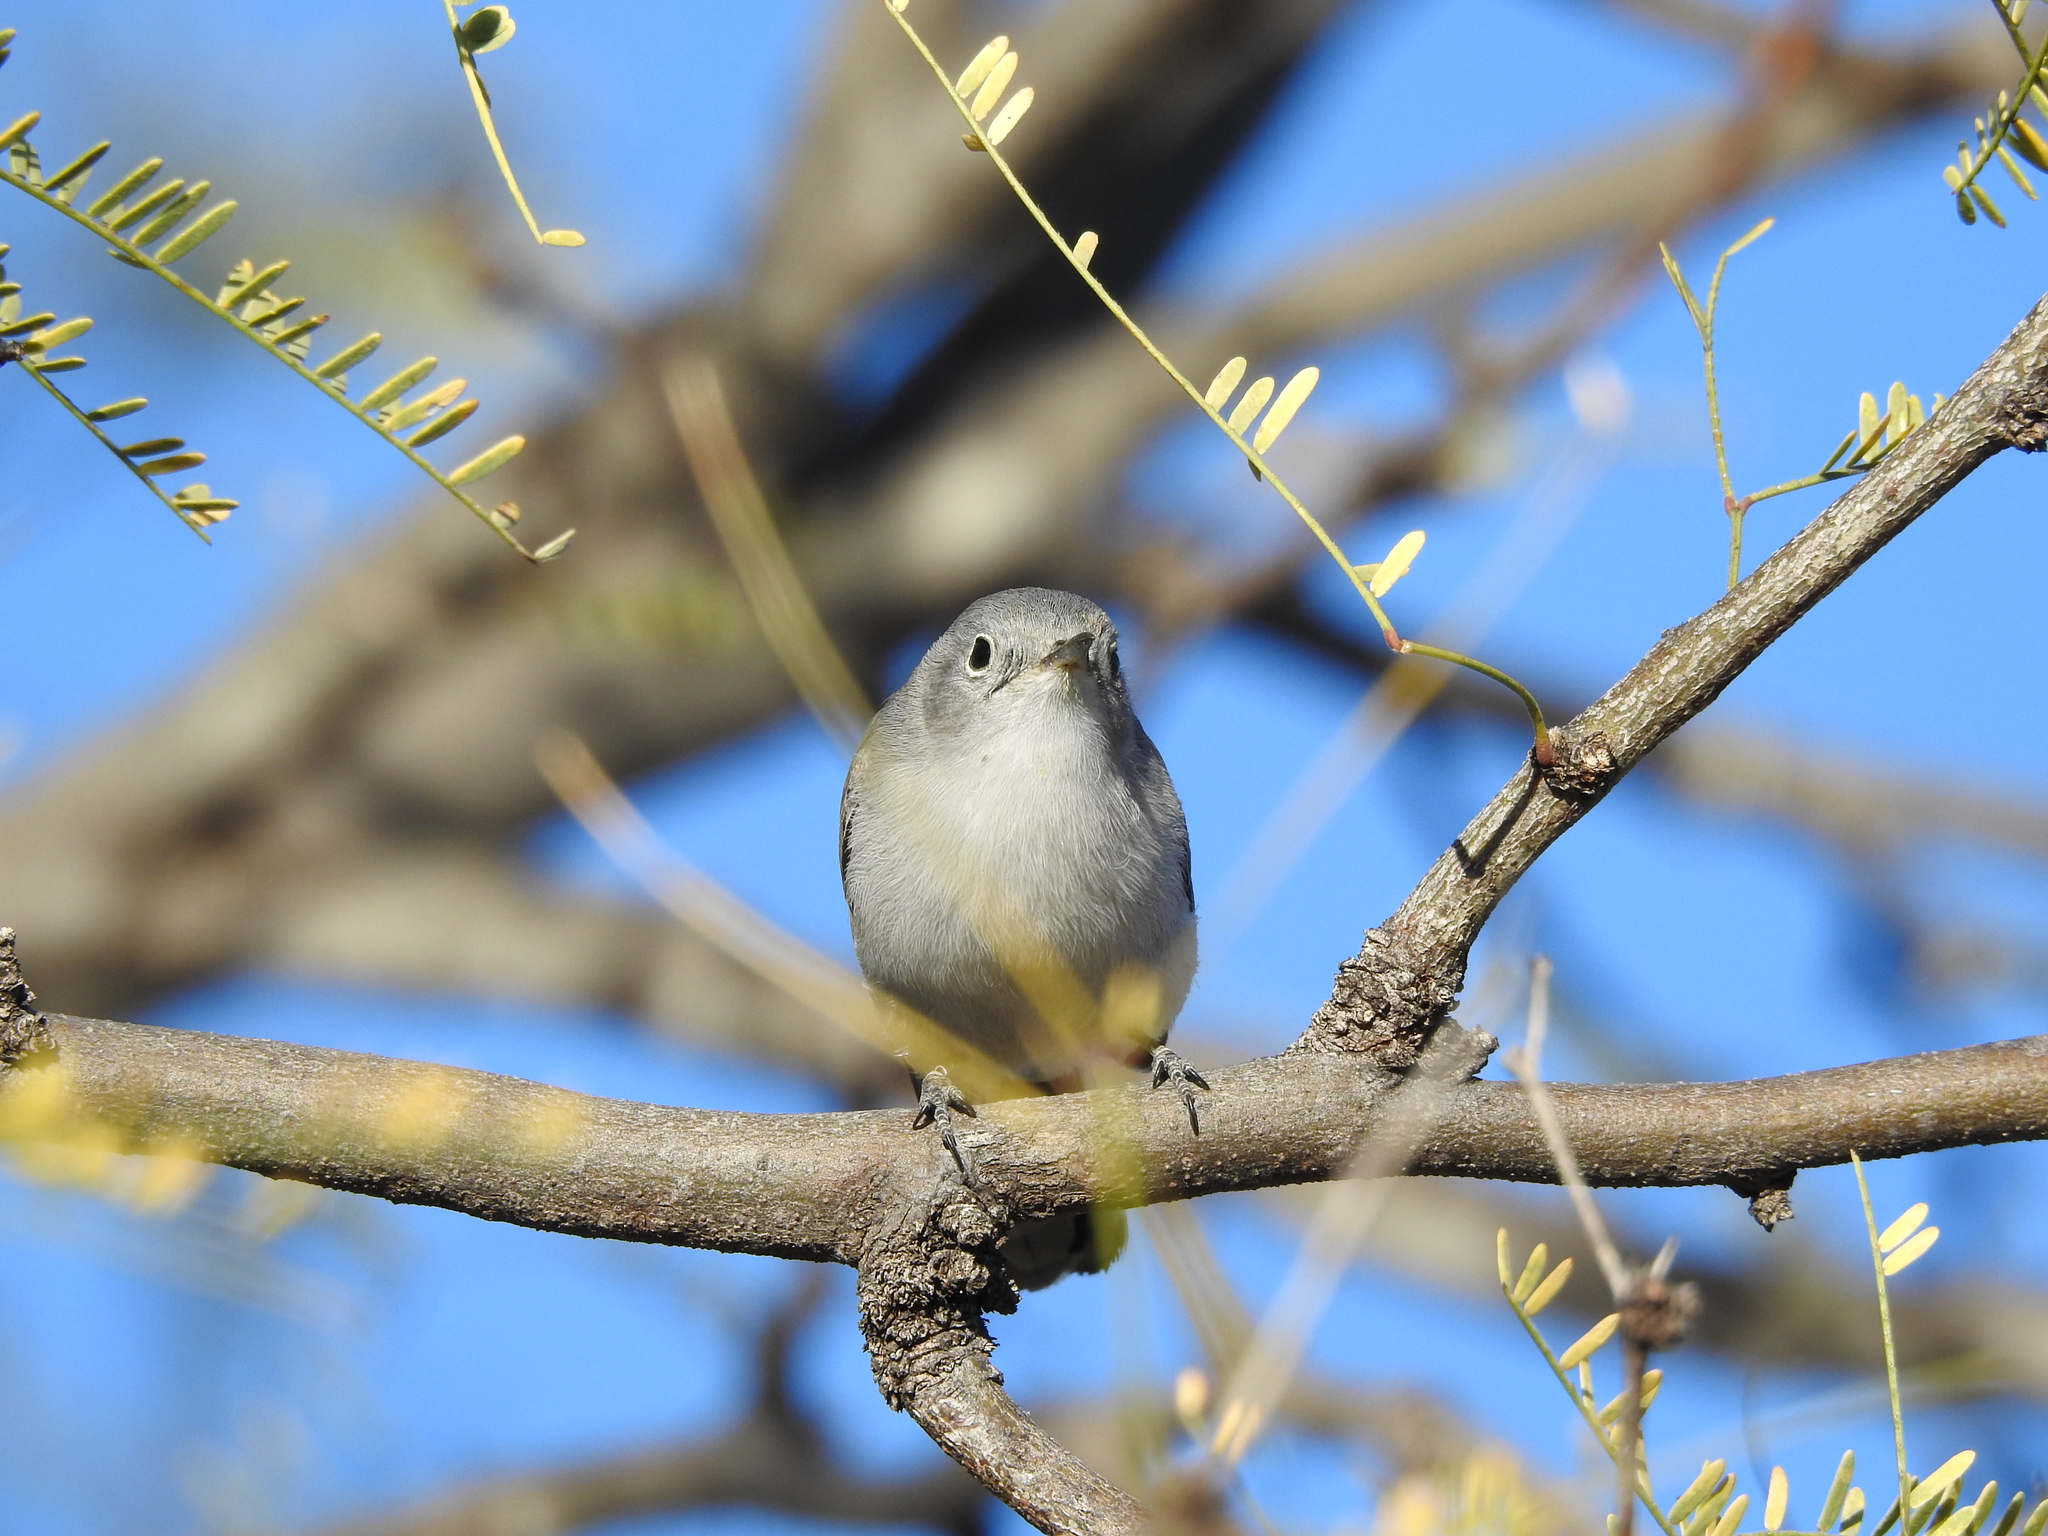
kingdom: Animalia
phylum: Chordata
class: Aves
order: Passeriformes
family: Polioptilidae
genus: Polioptila
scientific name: Polioptila caerulea
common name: Blue-gray gnatcatcher
